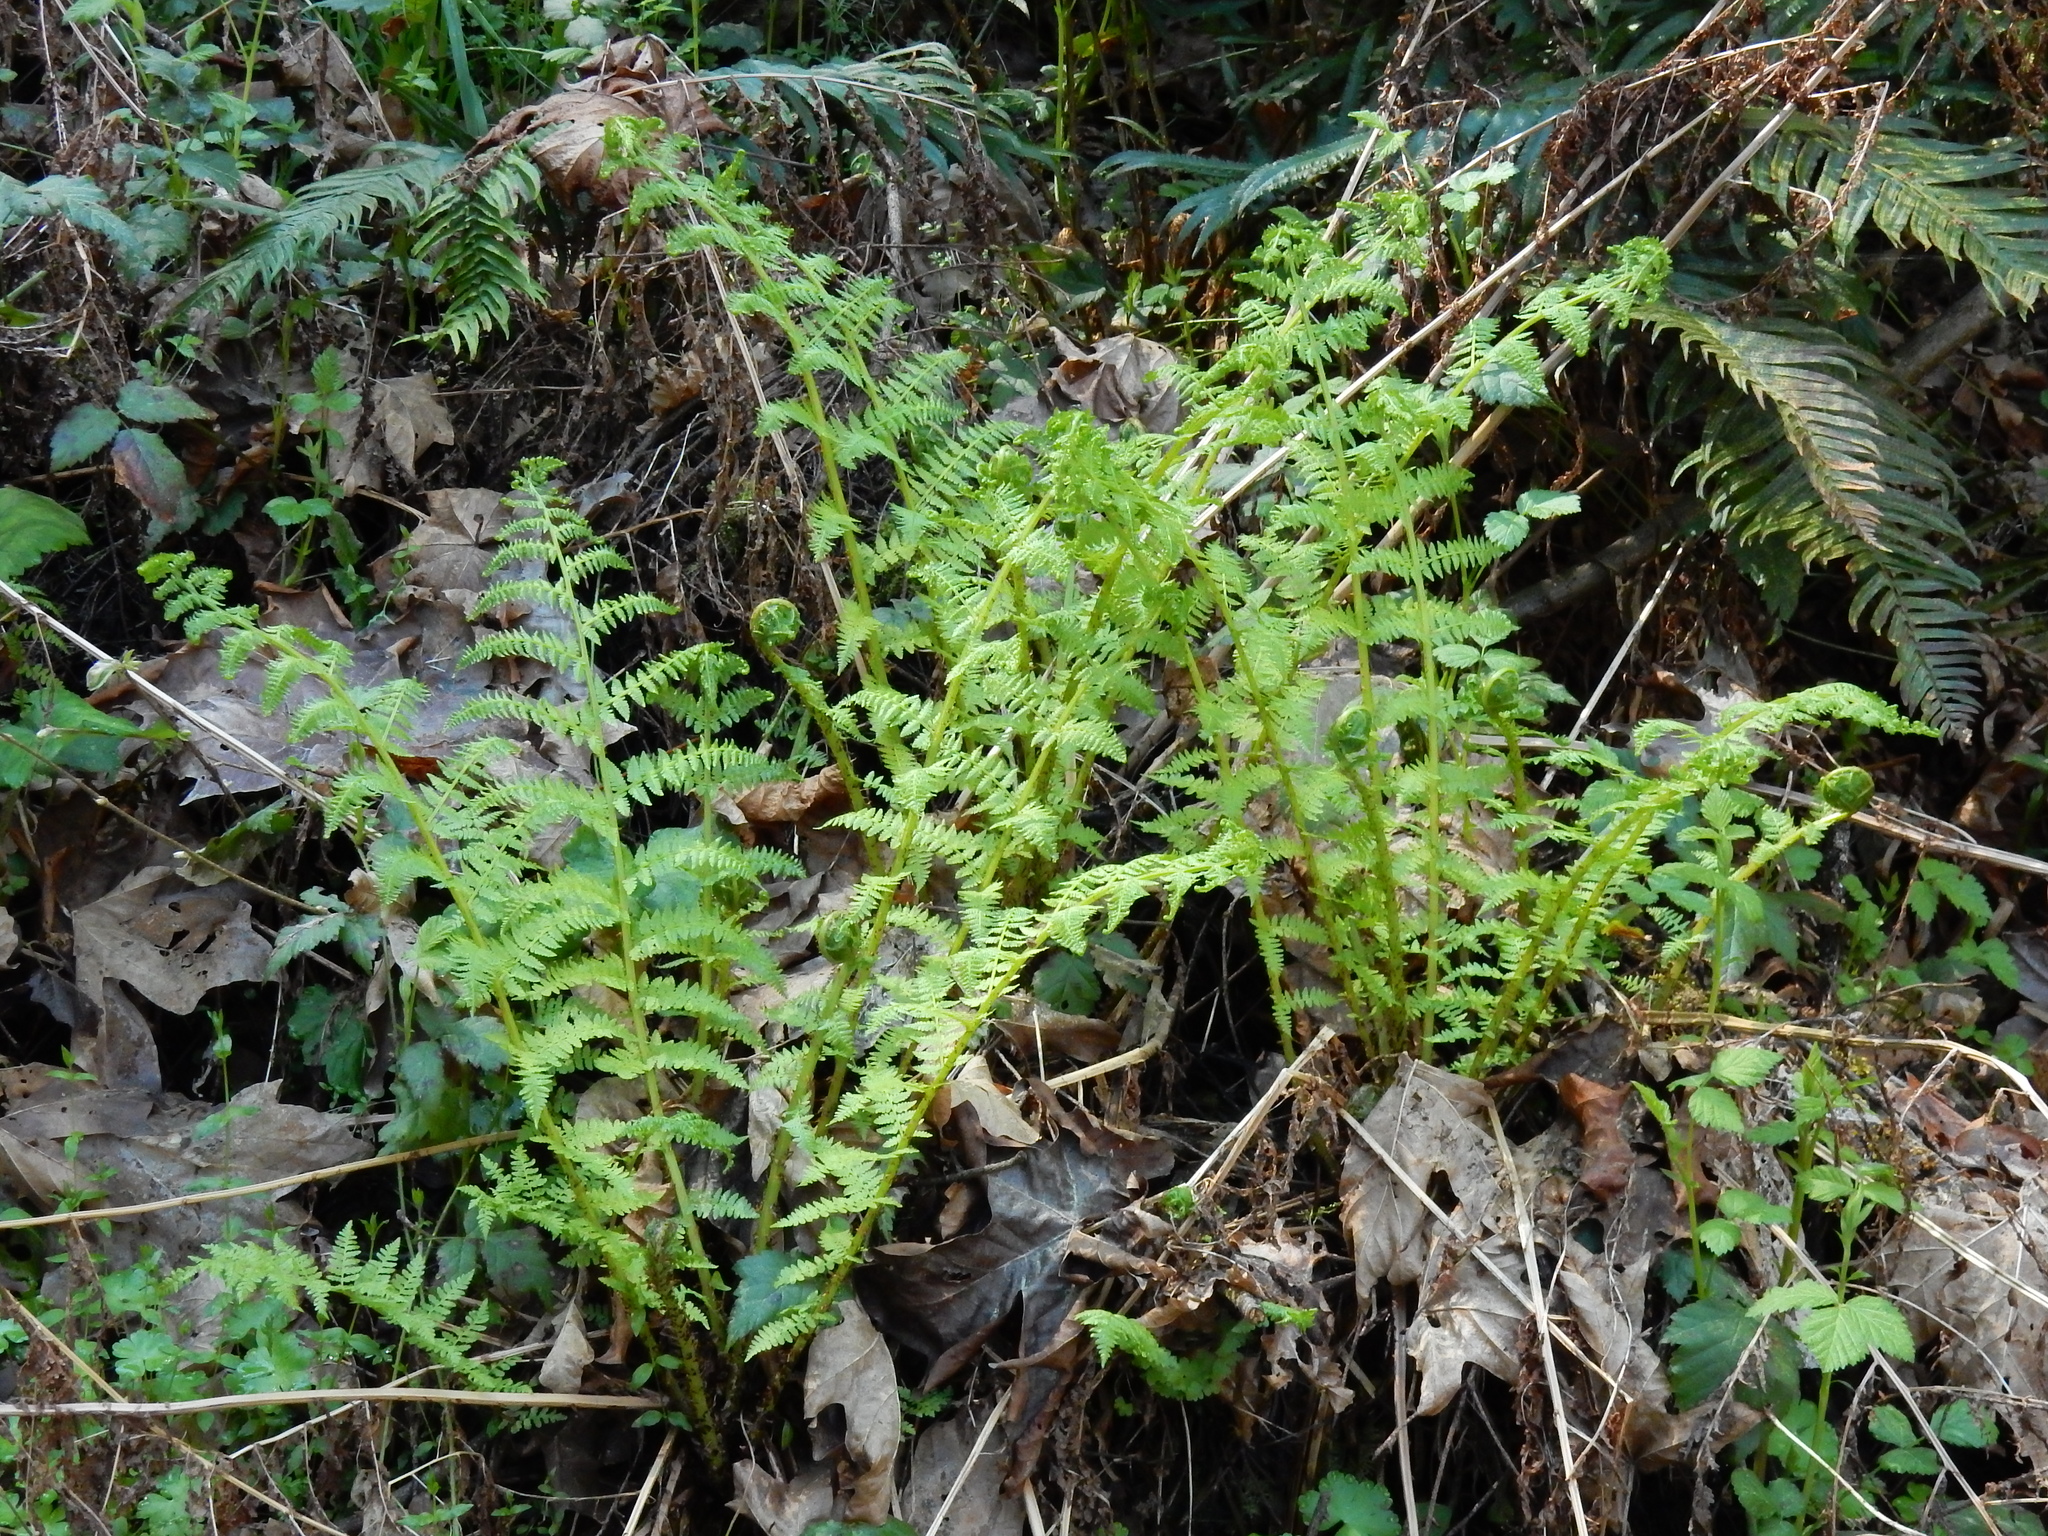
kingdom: Plantae
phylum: Tracheophyta
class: Polypodiopsida
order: Polypodiales
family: Athyriaceae
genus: Athyrium
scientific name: Athyrium cyclosorum
